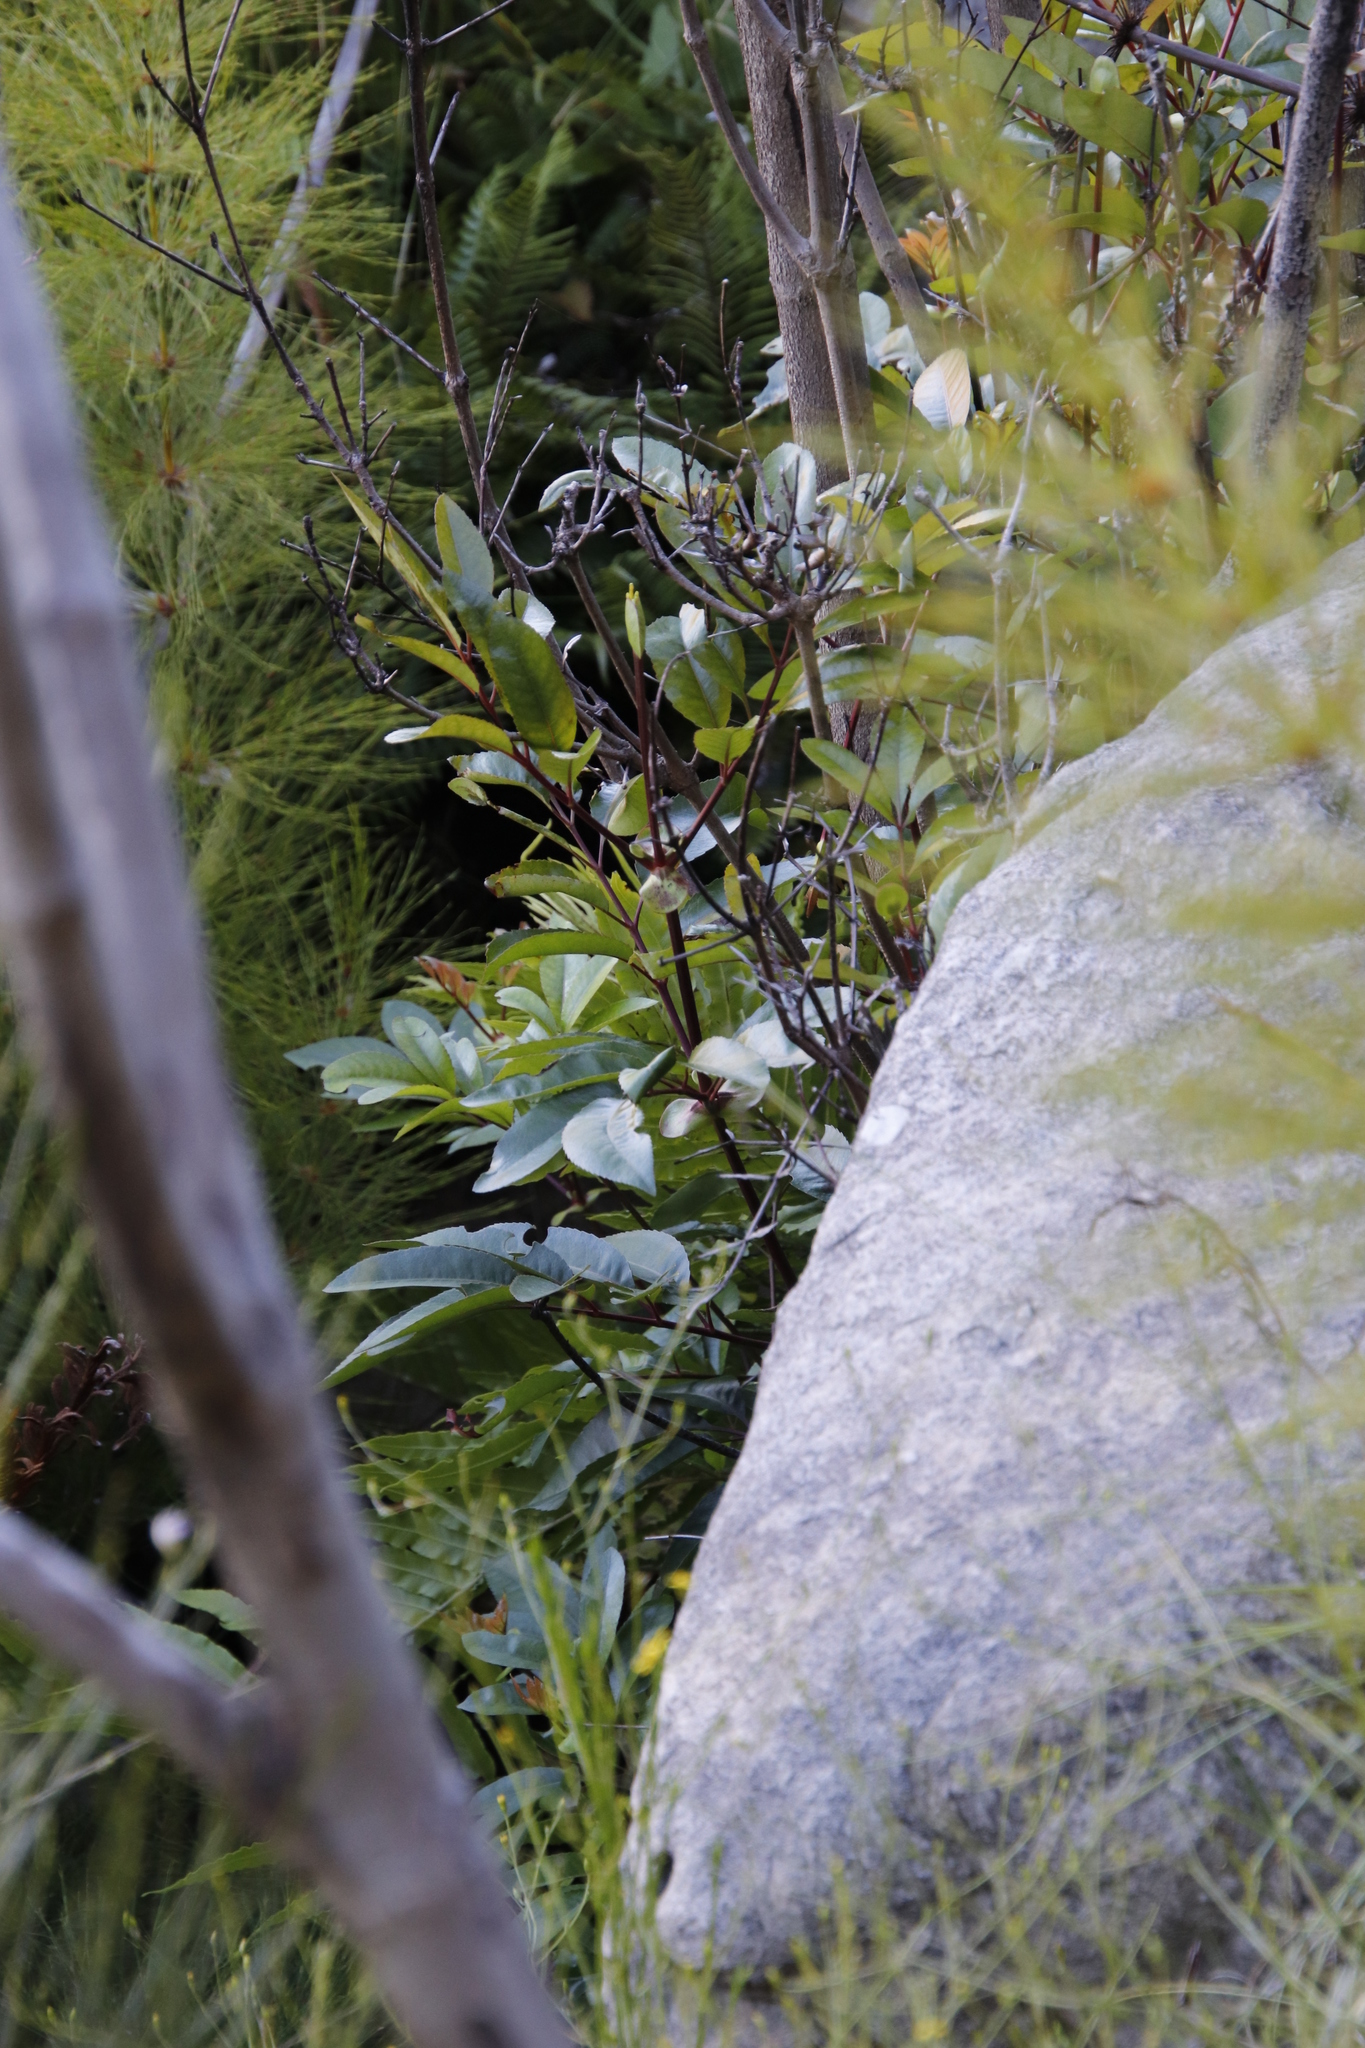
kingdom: Plantae
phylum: Tracheophyta
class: Magnoliopsida
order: Oxalidales
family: Cunoniaceae
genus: Cunonia
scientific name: Cunonia capensis
